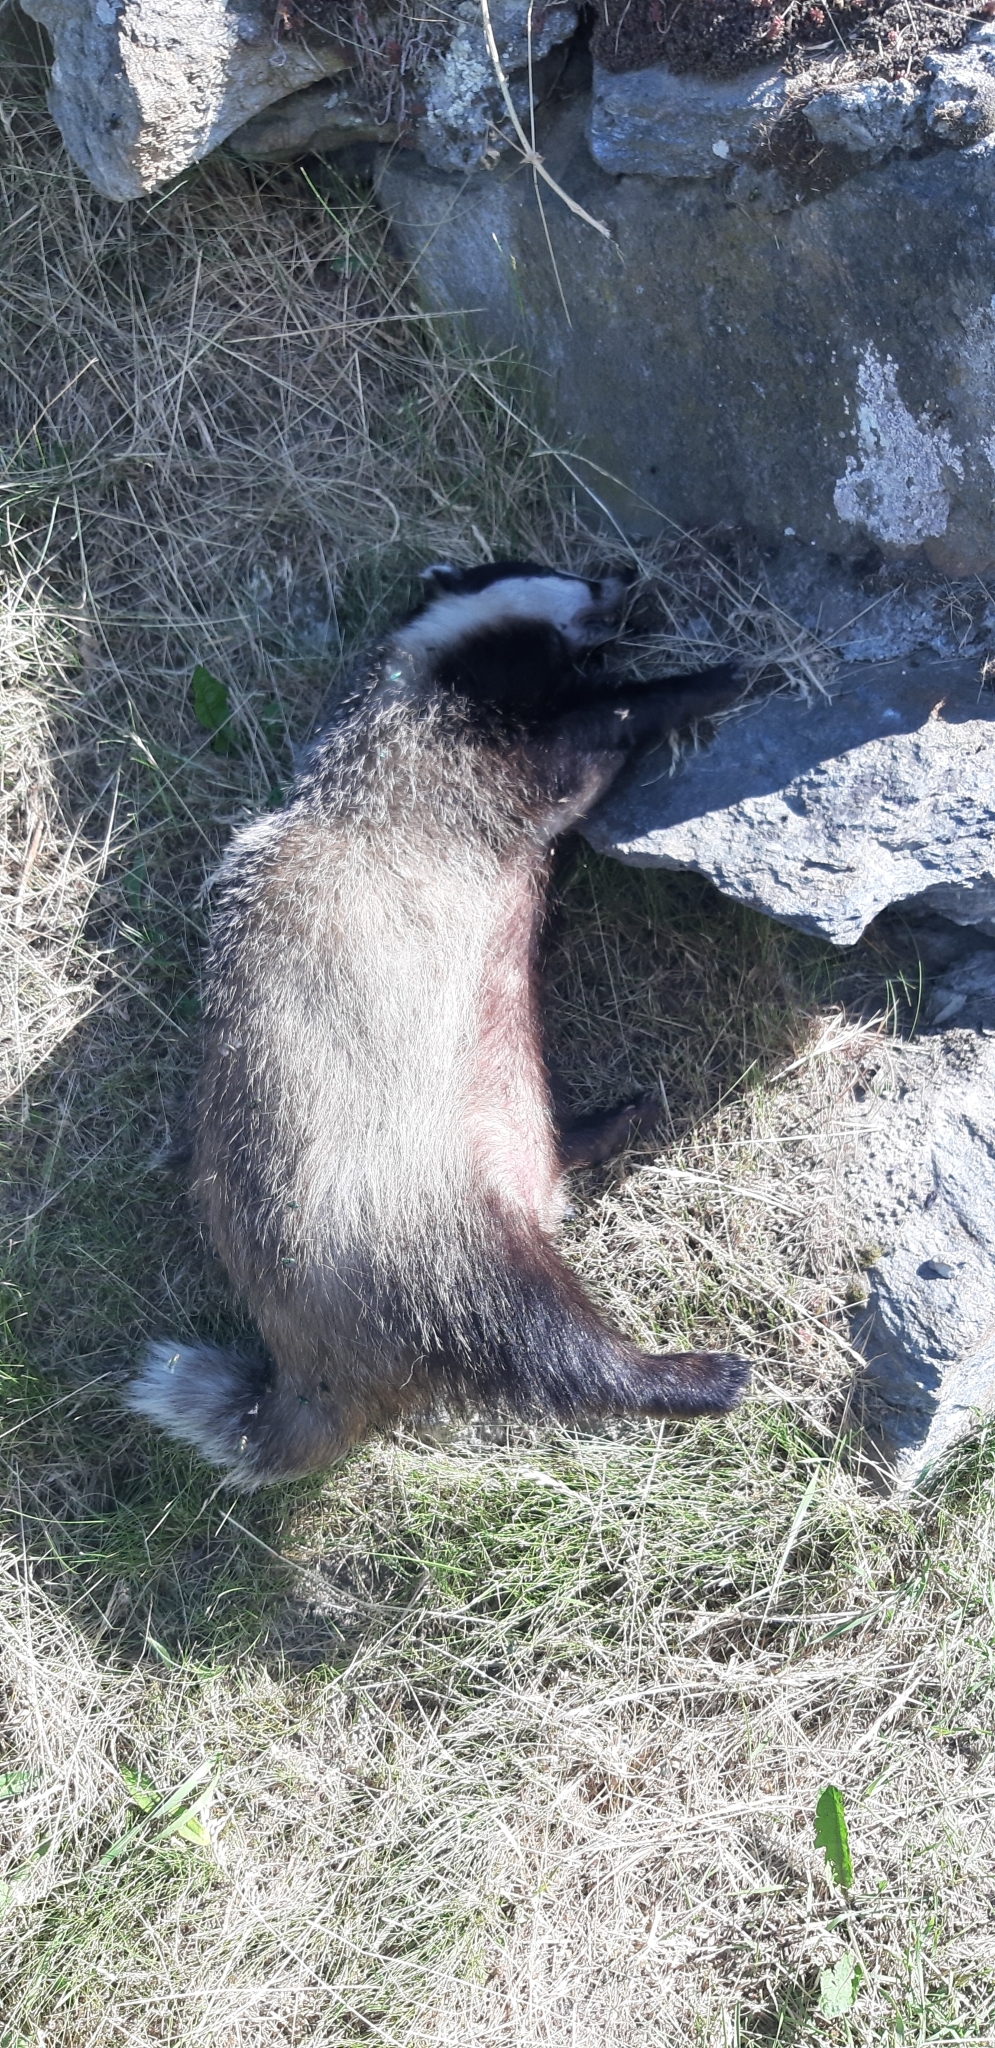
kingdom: Animalia
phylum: Chordata
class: Mammalia
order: Carnivora
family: Mustelidae
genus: Meles
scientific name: Meles meles
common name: Eurasian badger
